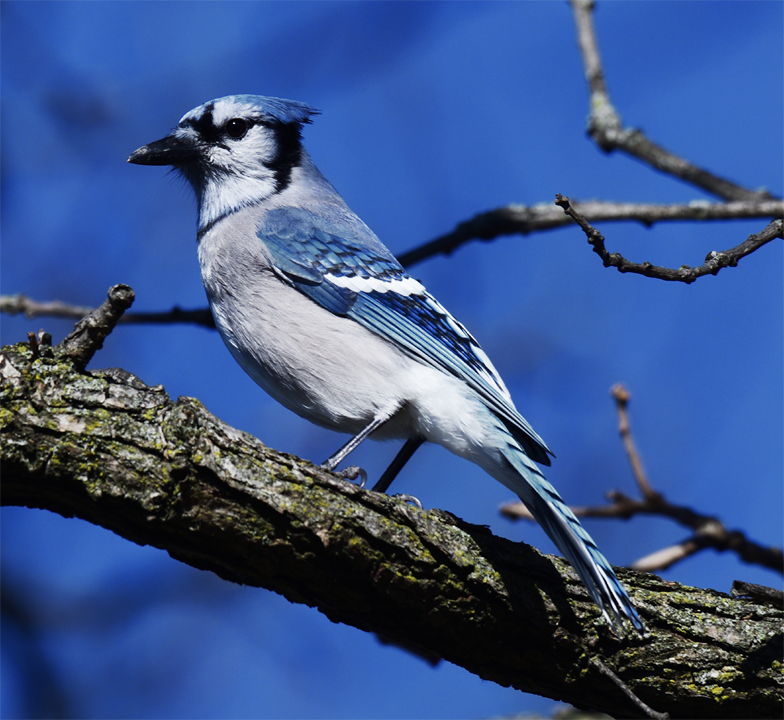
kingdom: Animalia
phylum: Chordata
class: Aves
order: Passeriformes
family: Corvidae
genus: Cyanocitta
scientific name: Cyanocitta cristata
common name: Blue jay
